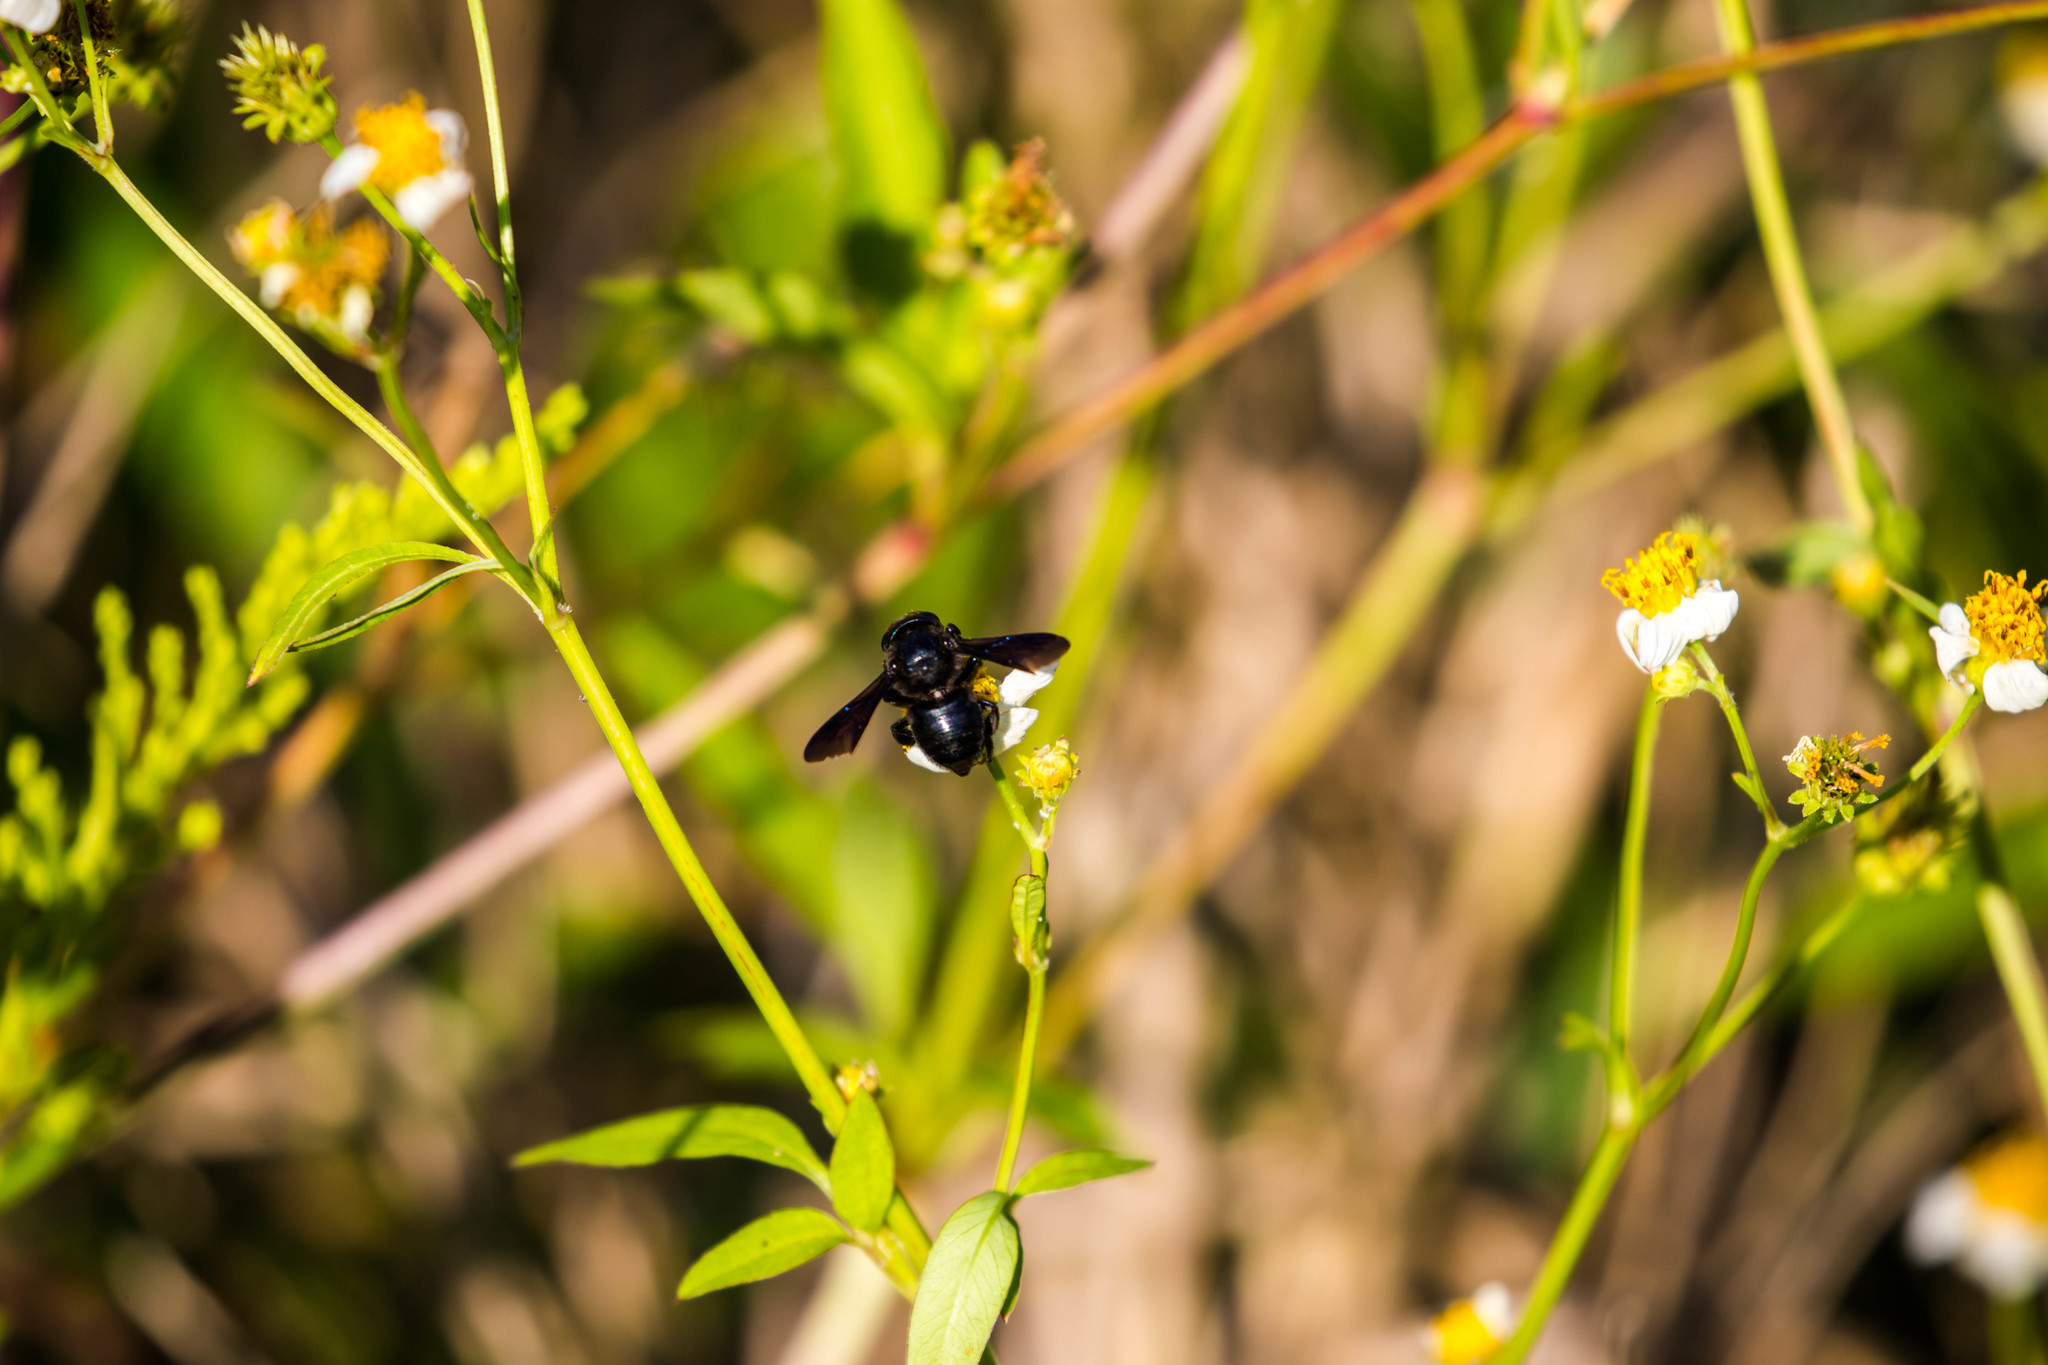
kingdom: Animalia
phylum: Arthropoda
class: Insecta
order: Hymenoptera
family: Megachilidae
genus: Megachile
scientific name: Megachile xylocopoides
